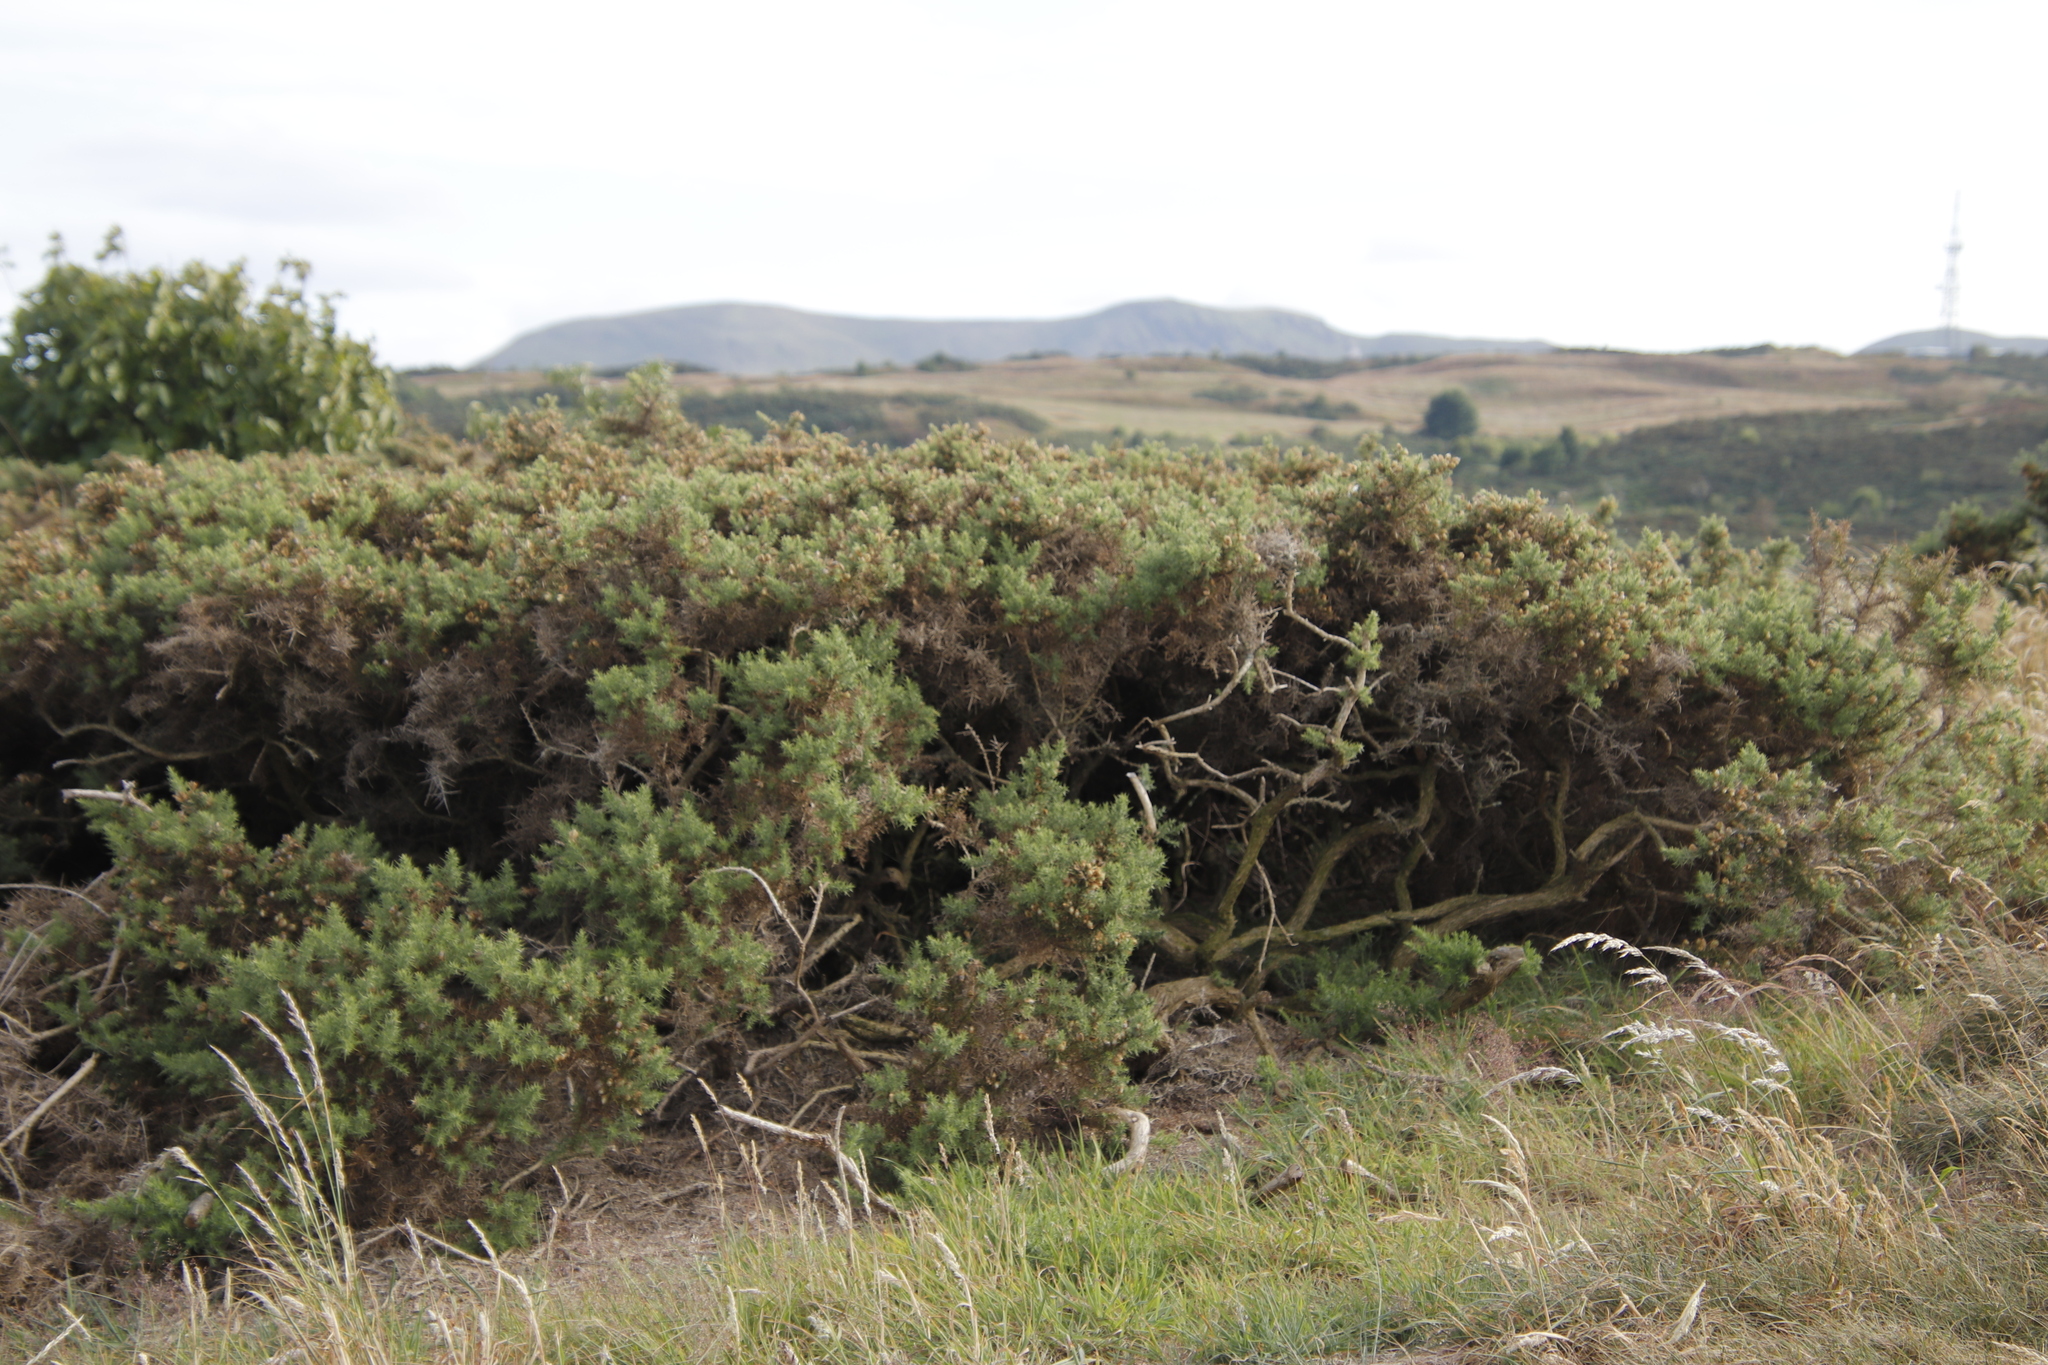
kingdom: Plantae
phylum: Tracheophyta
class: Magnoliopsida
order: Fabales
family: Fabaceae
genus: Ulex
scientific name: Ulex europaeus
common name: Common gorse
